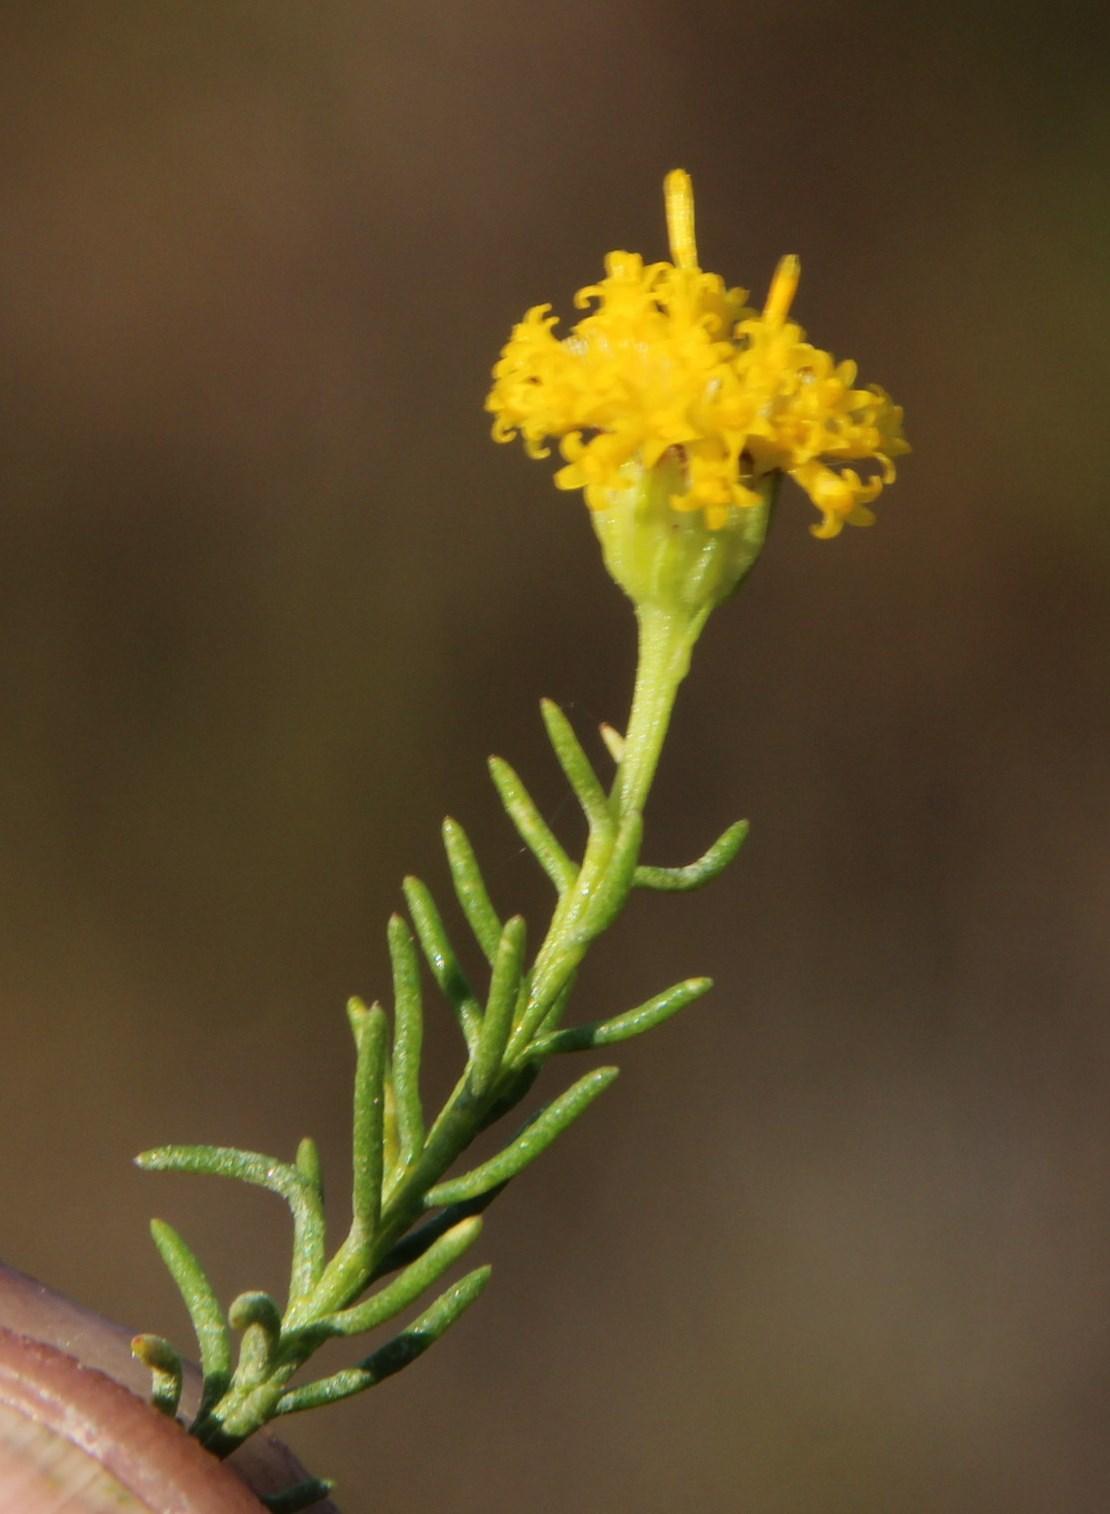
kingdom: Plantae
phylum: Tracheophyta
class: Magnoliopsida
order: Asterales
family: Asteraceae
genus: Chrysocoma
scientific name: Chrysocoma ciliata
